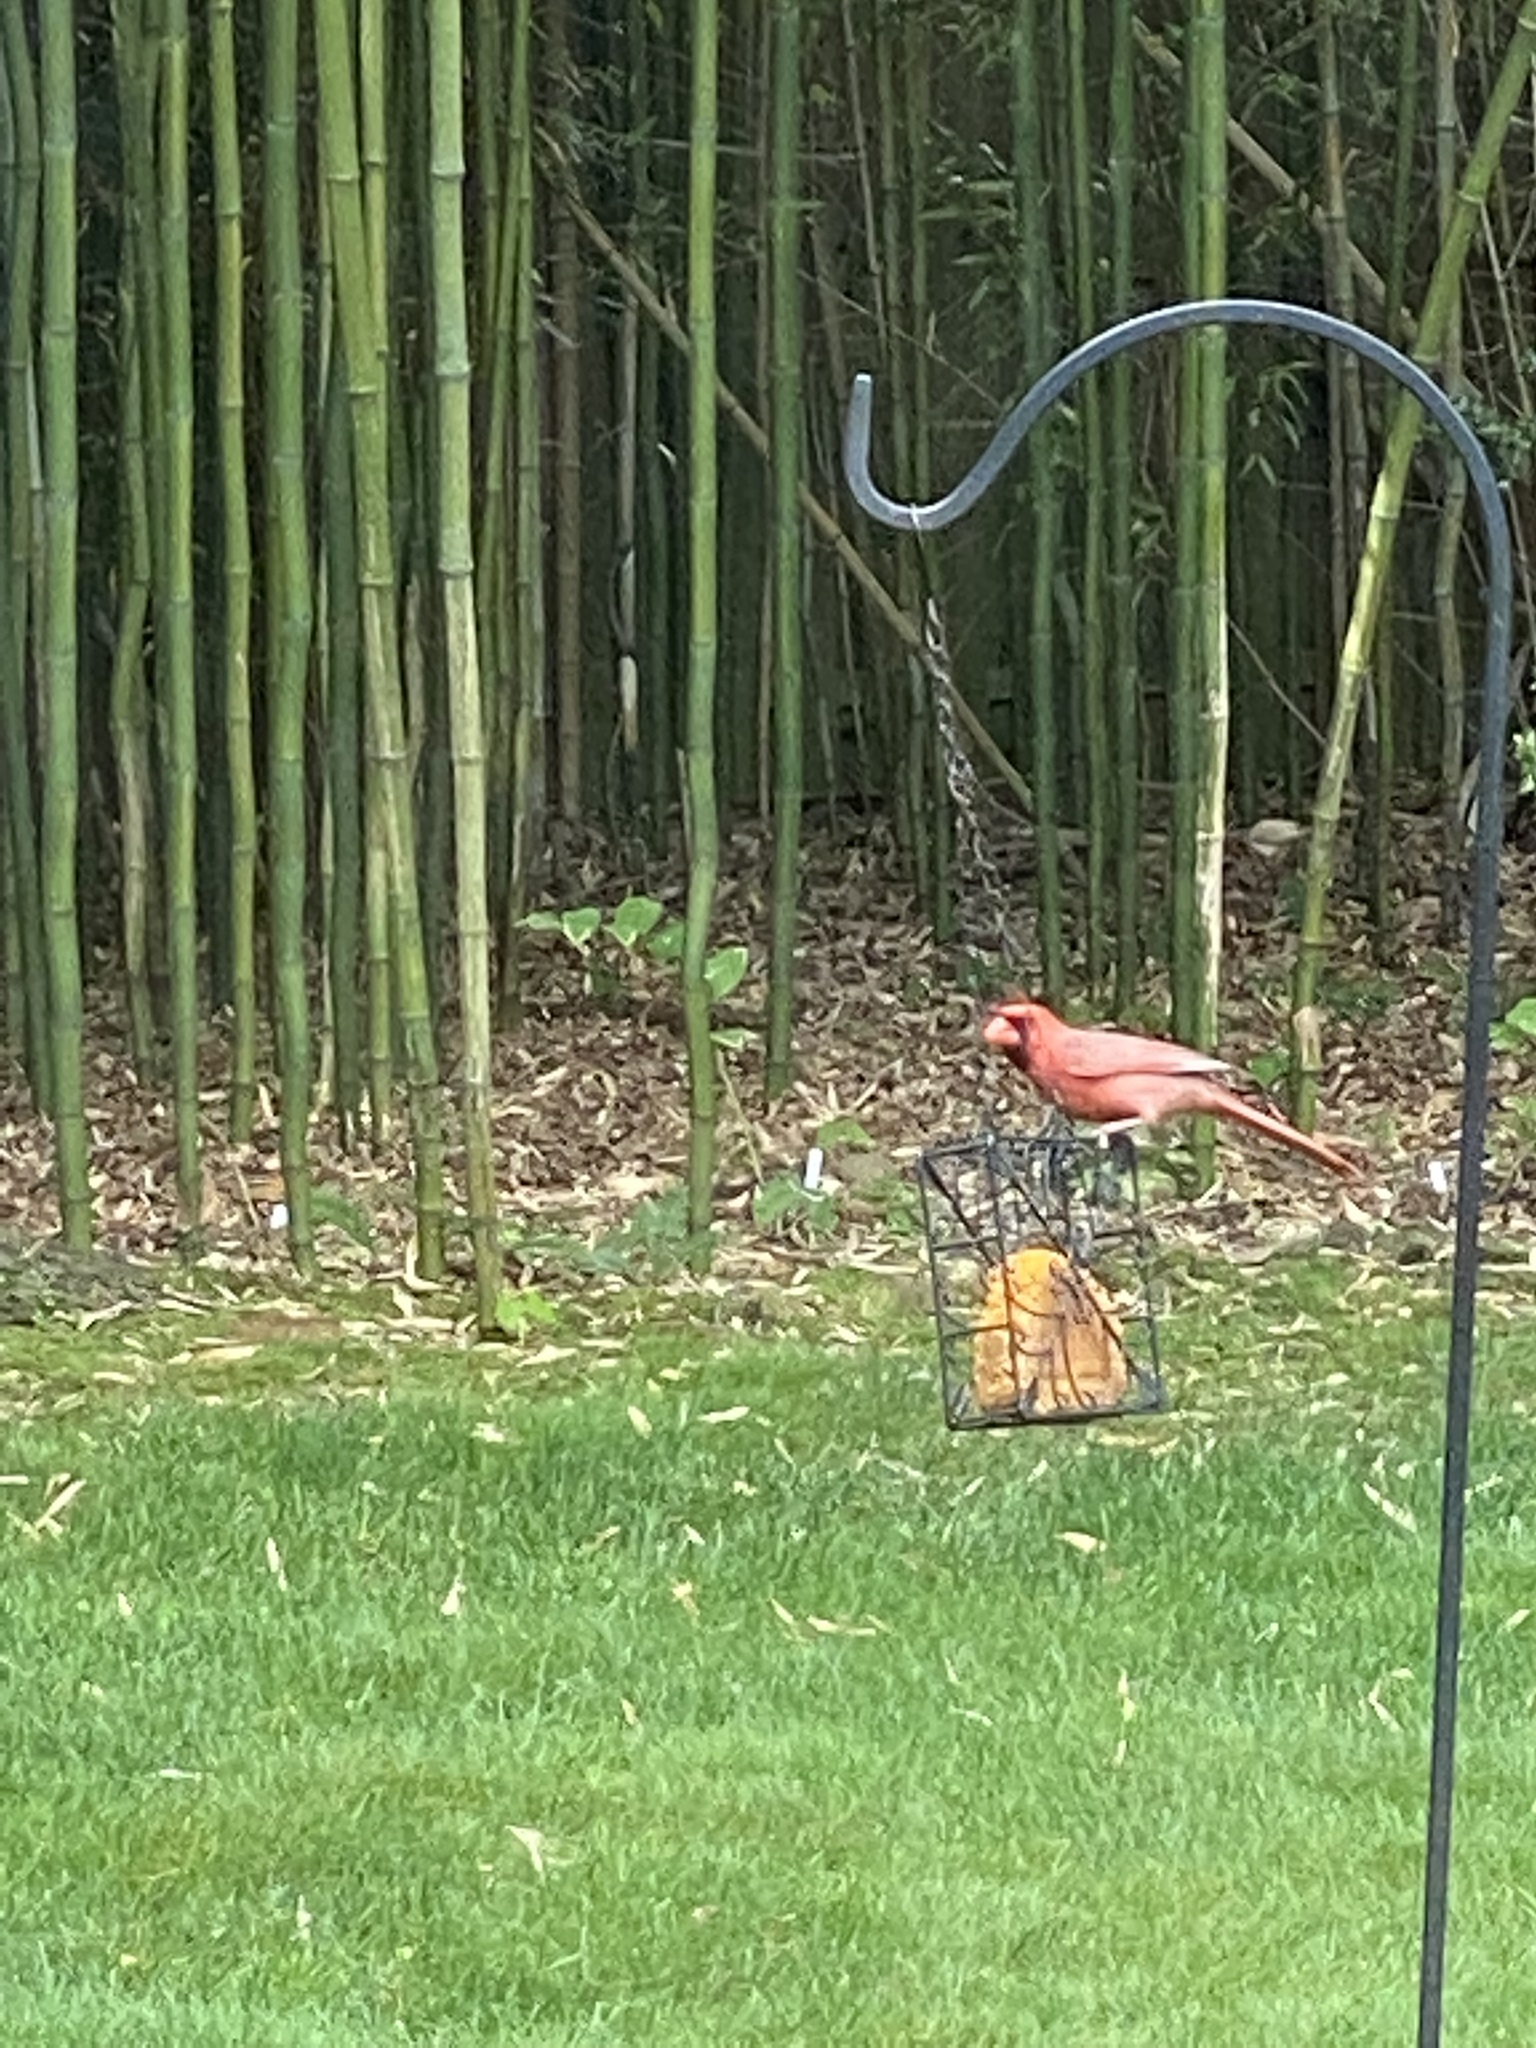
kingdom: Animalia
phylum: Chordata
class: Aves
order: Passeriformes
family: Cardinalidae
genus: Cardinalis
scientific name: Cardinalis cardinalis
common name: Northern cardinal
